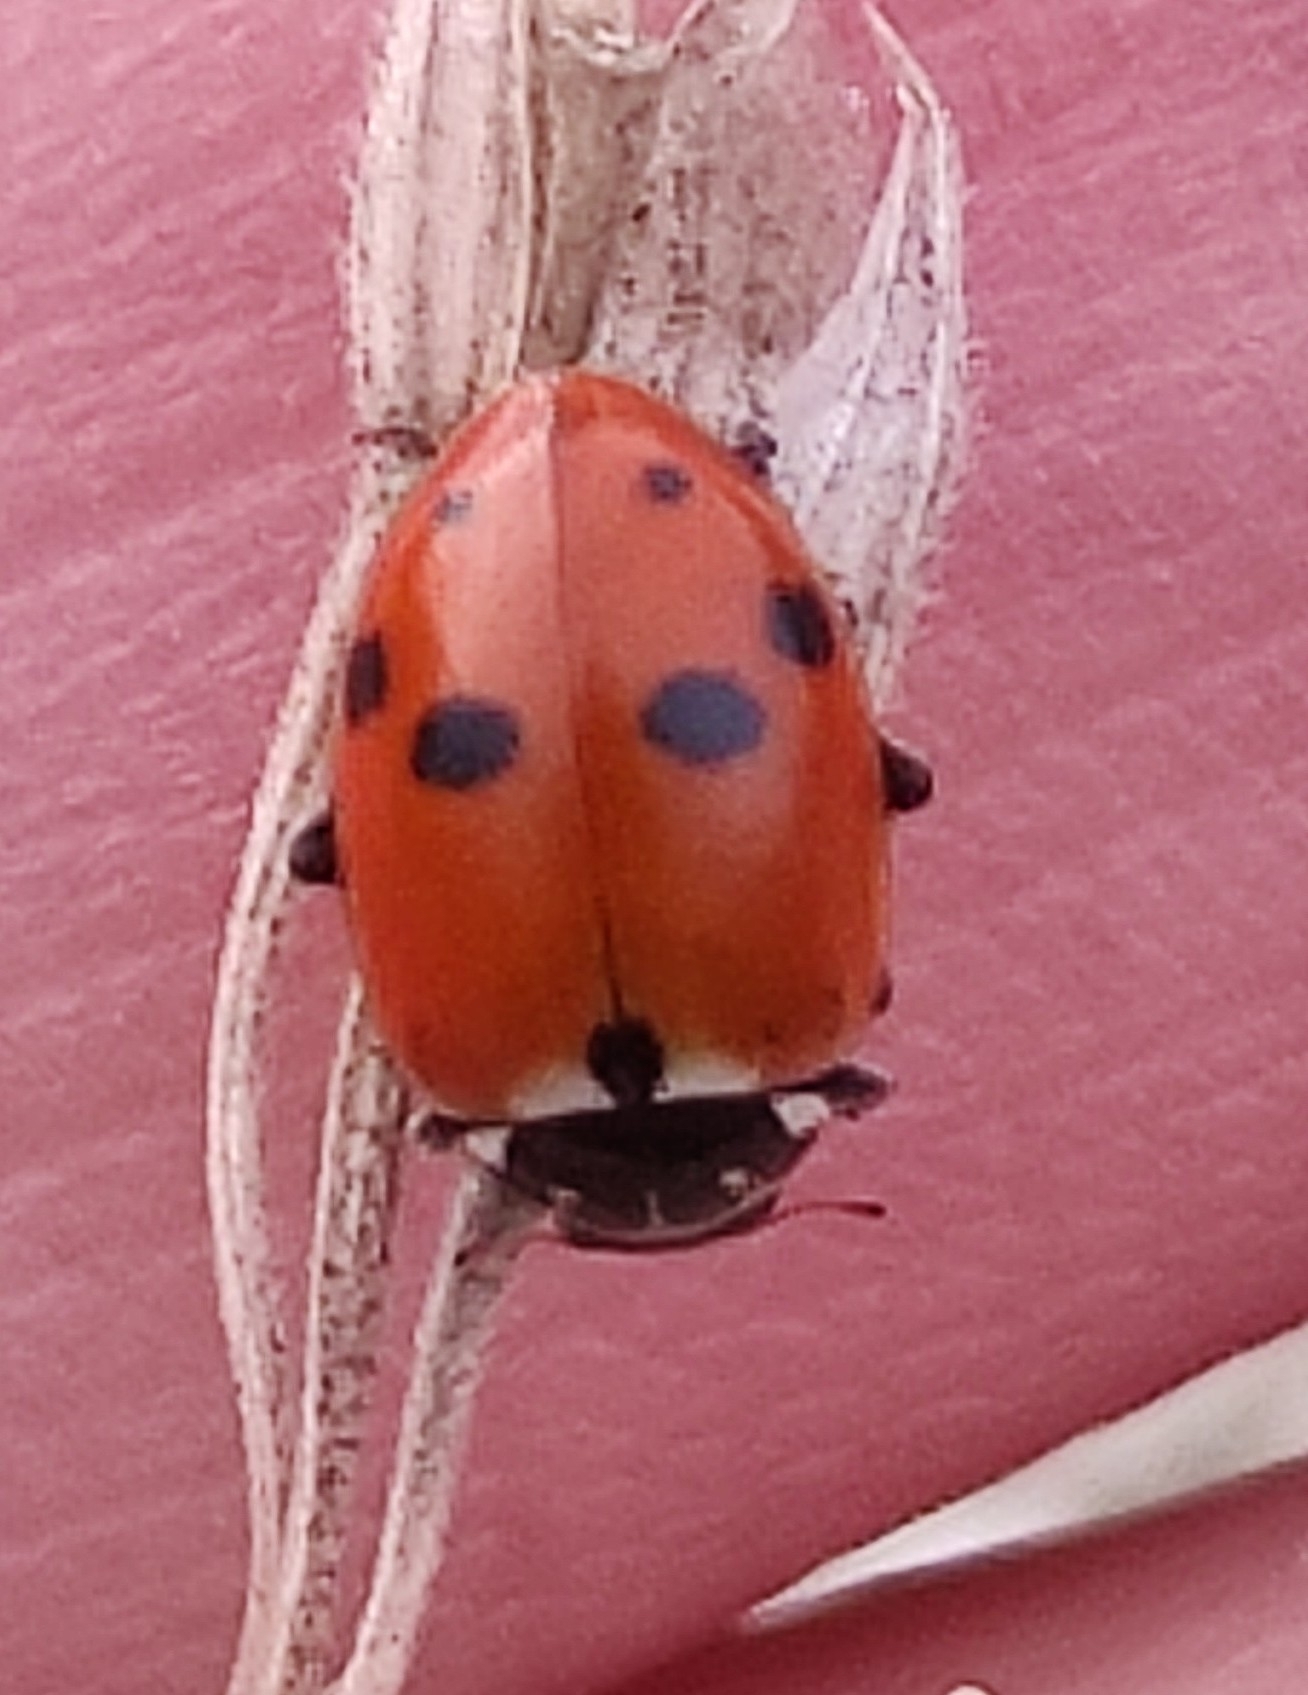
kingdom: Animalia
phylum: Arthropoda
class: Insecta
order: Coleoptera
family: Coccinellidae
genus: Hippodamia
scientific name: Hippodamia variegata
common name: Ladybird beetle
